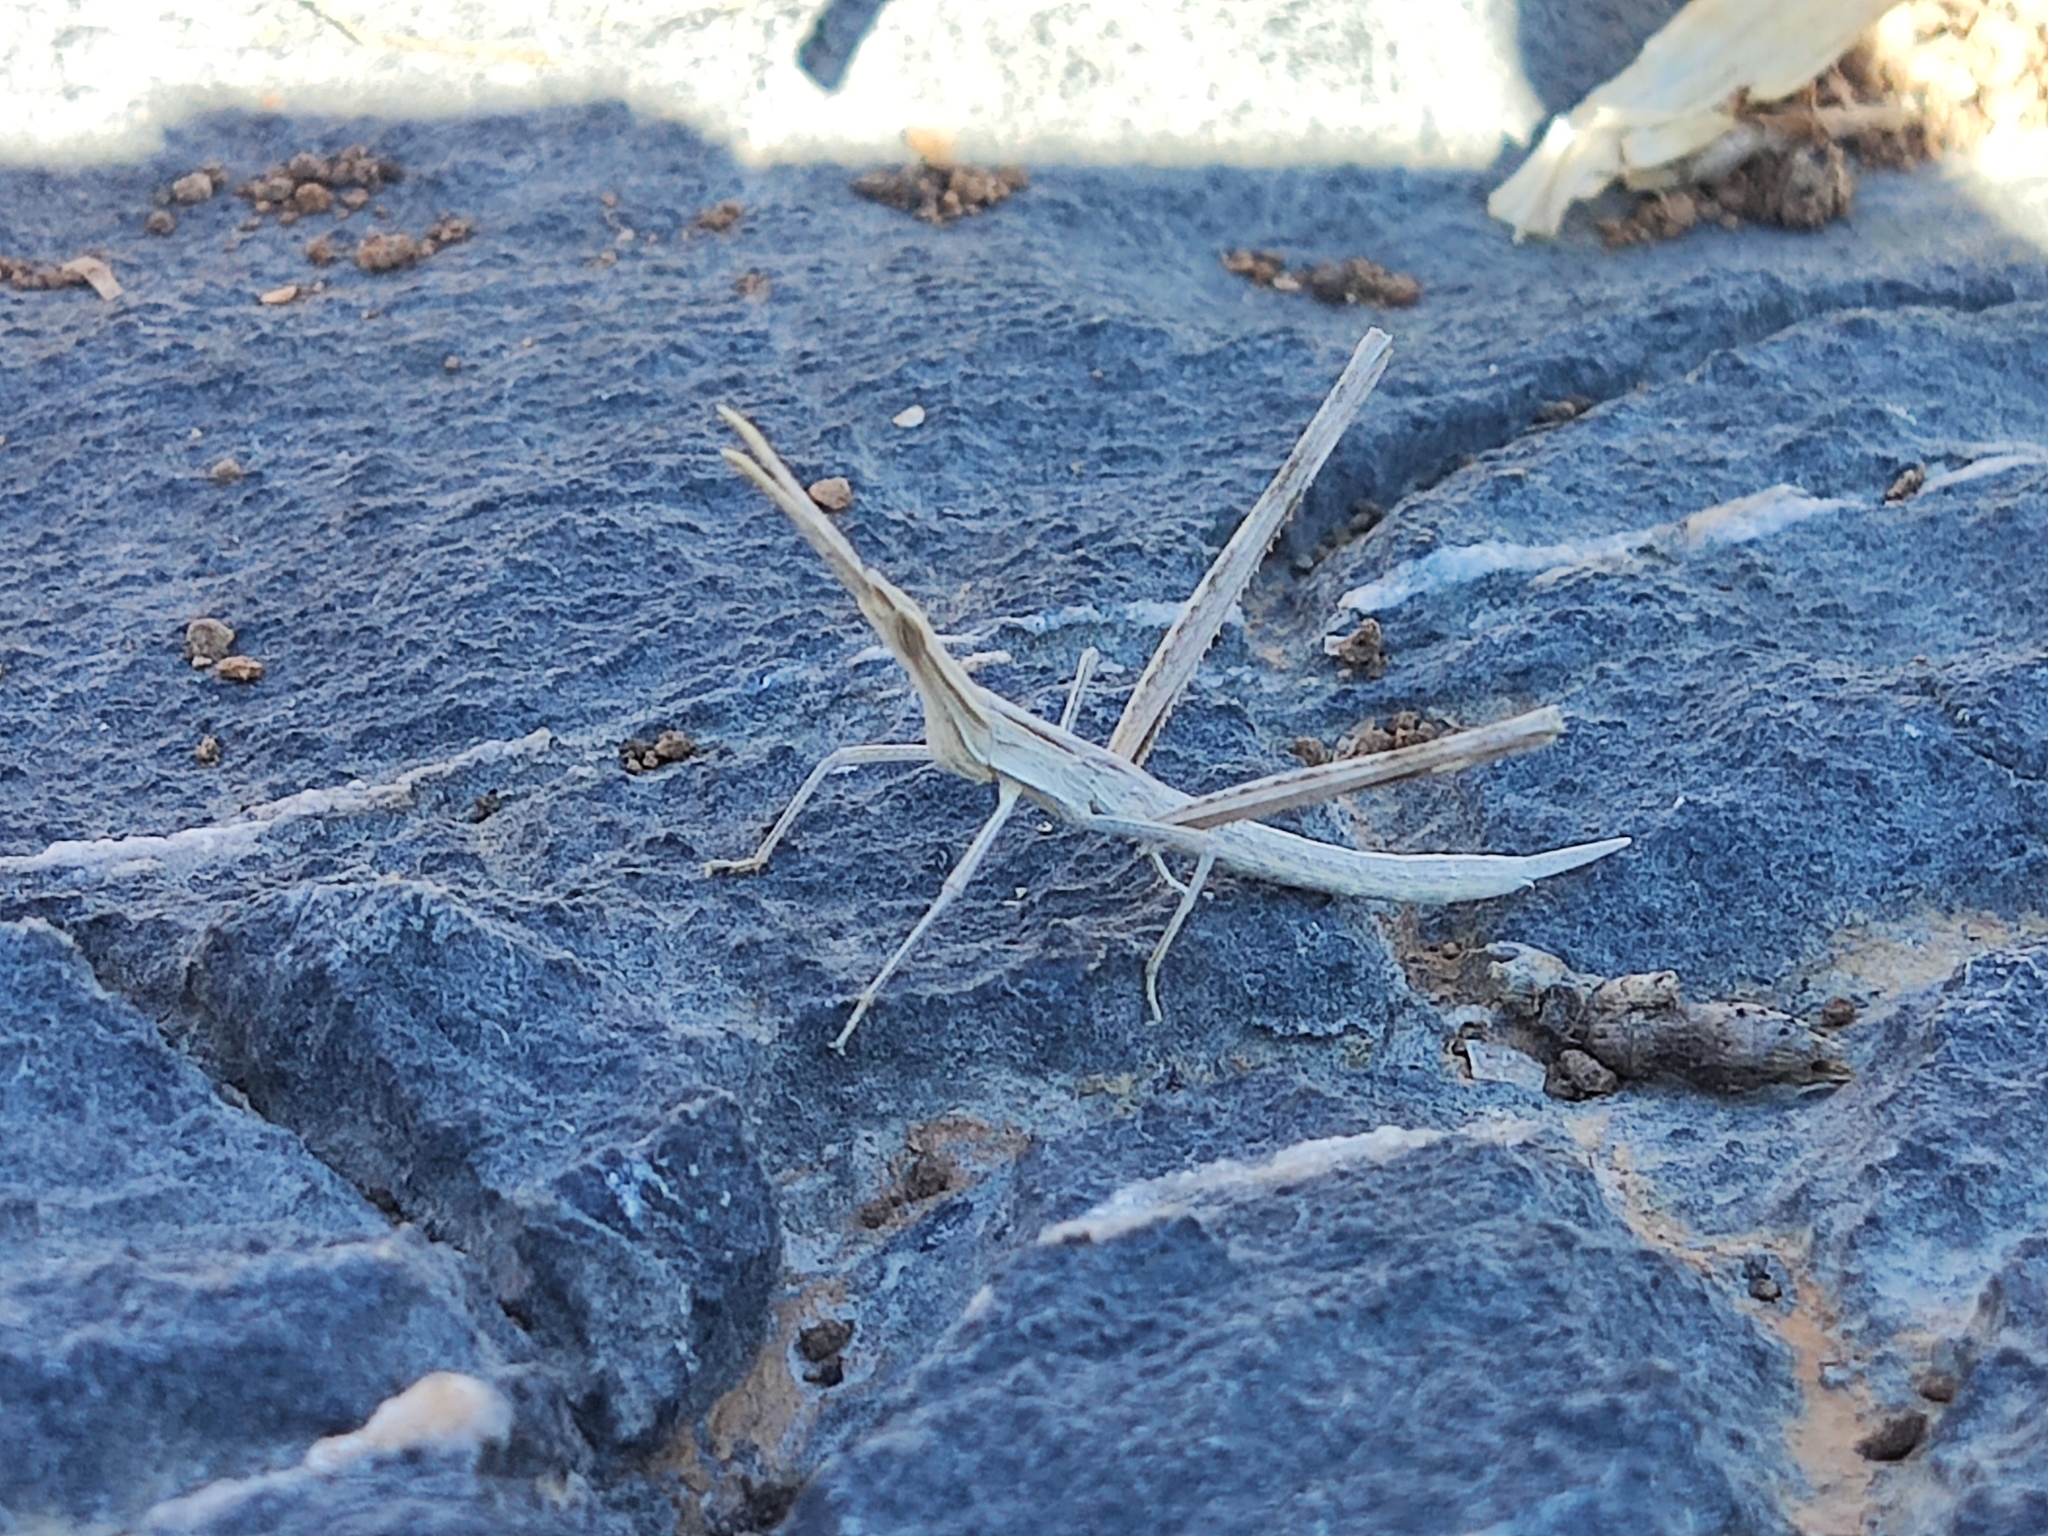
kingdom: Animalia
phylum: Arthropoda
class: Insecta
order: Orthoptera
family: Acrididae
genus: Acrida
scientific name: Acrida turrita
